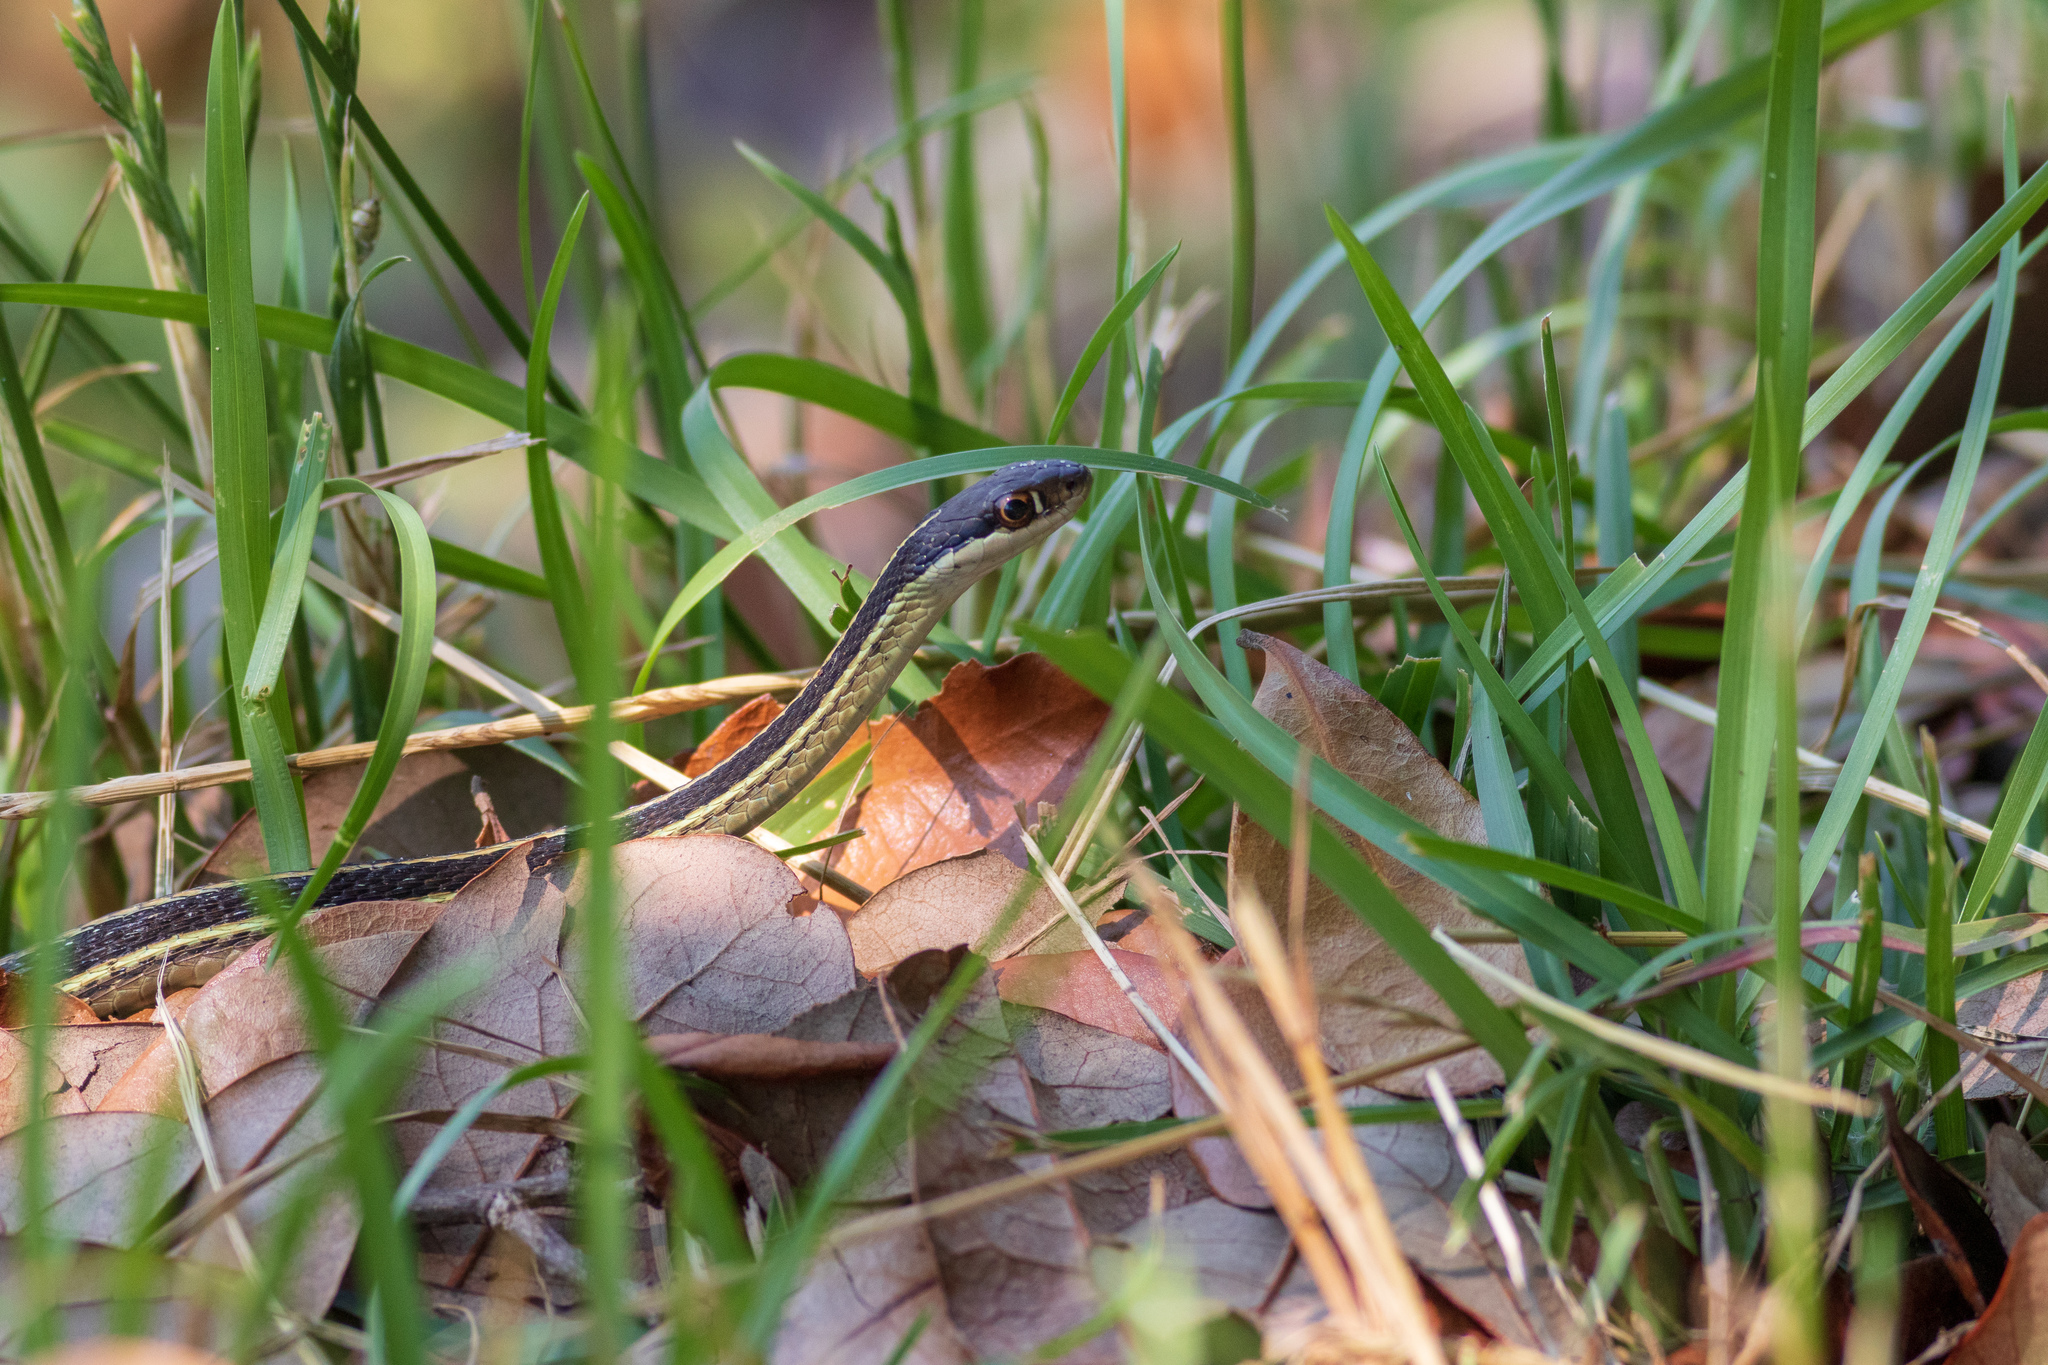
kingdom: Animalia
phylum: Chordata
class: Squamata
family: Colubridae
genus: Thamnophis
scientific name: Thamnophis saurita
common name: Eastern ribbonsnake
